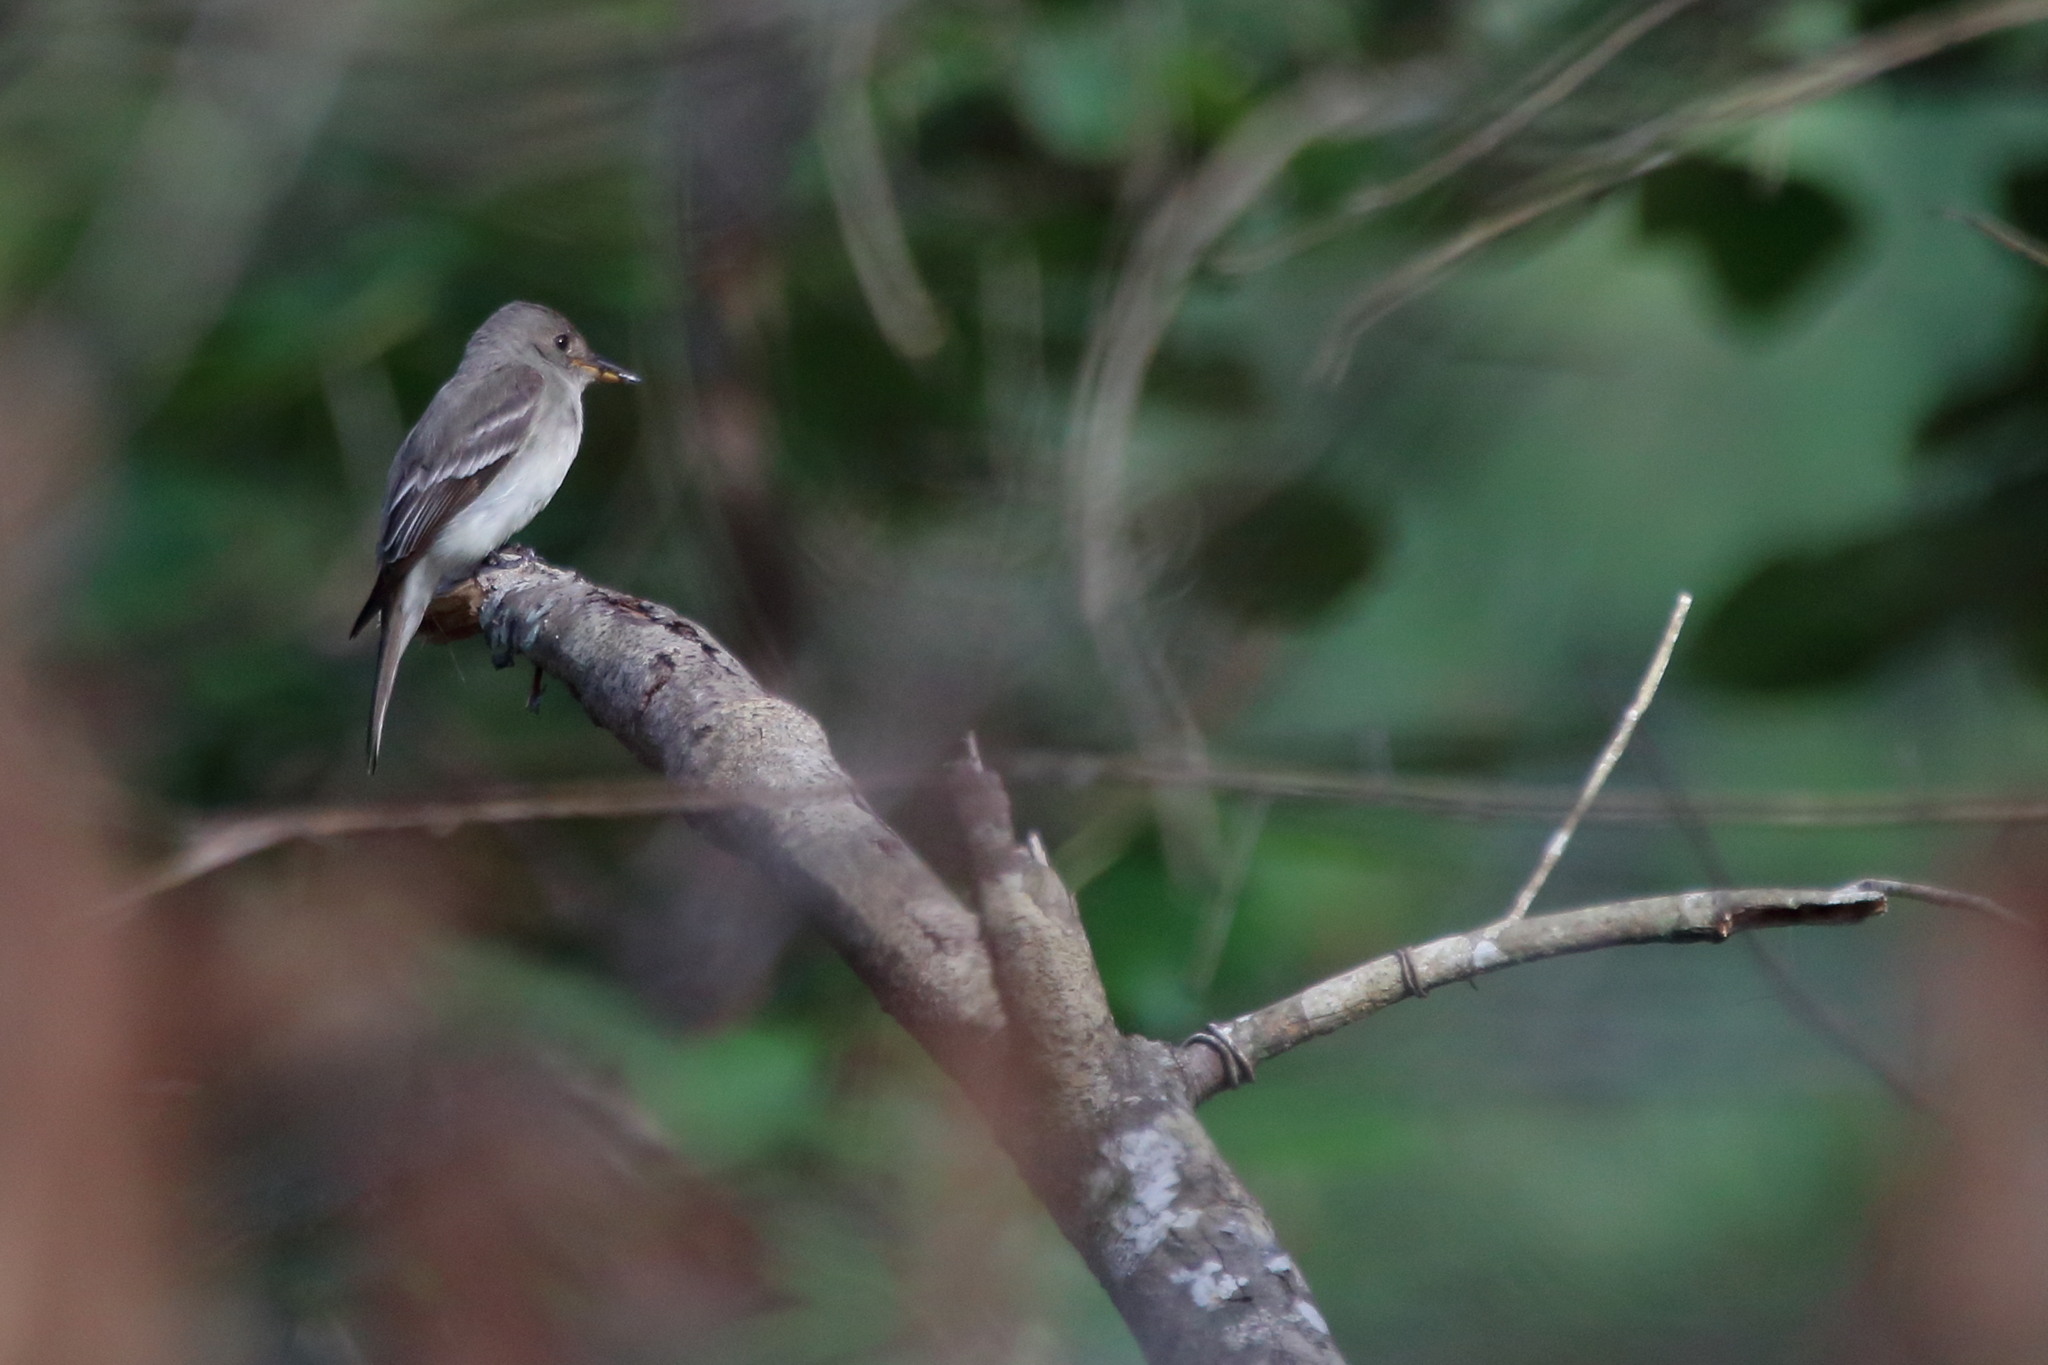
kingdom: Animalia
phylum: Chordata
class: Aves
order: Passeriformes
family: Tyrannidae
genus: Contopus
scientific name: Contopus virens
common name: Eastern wood-pewee
